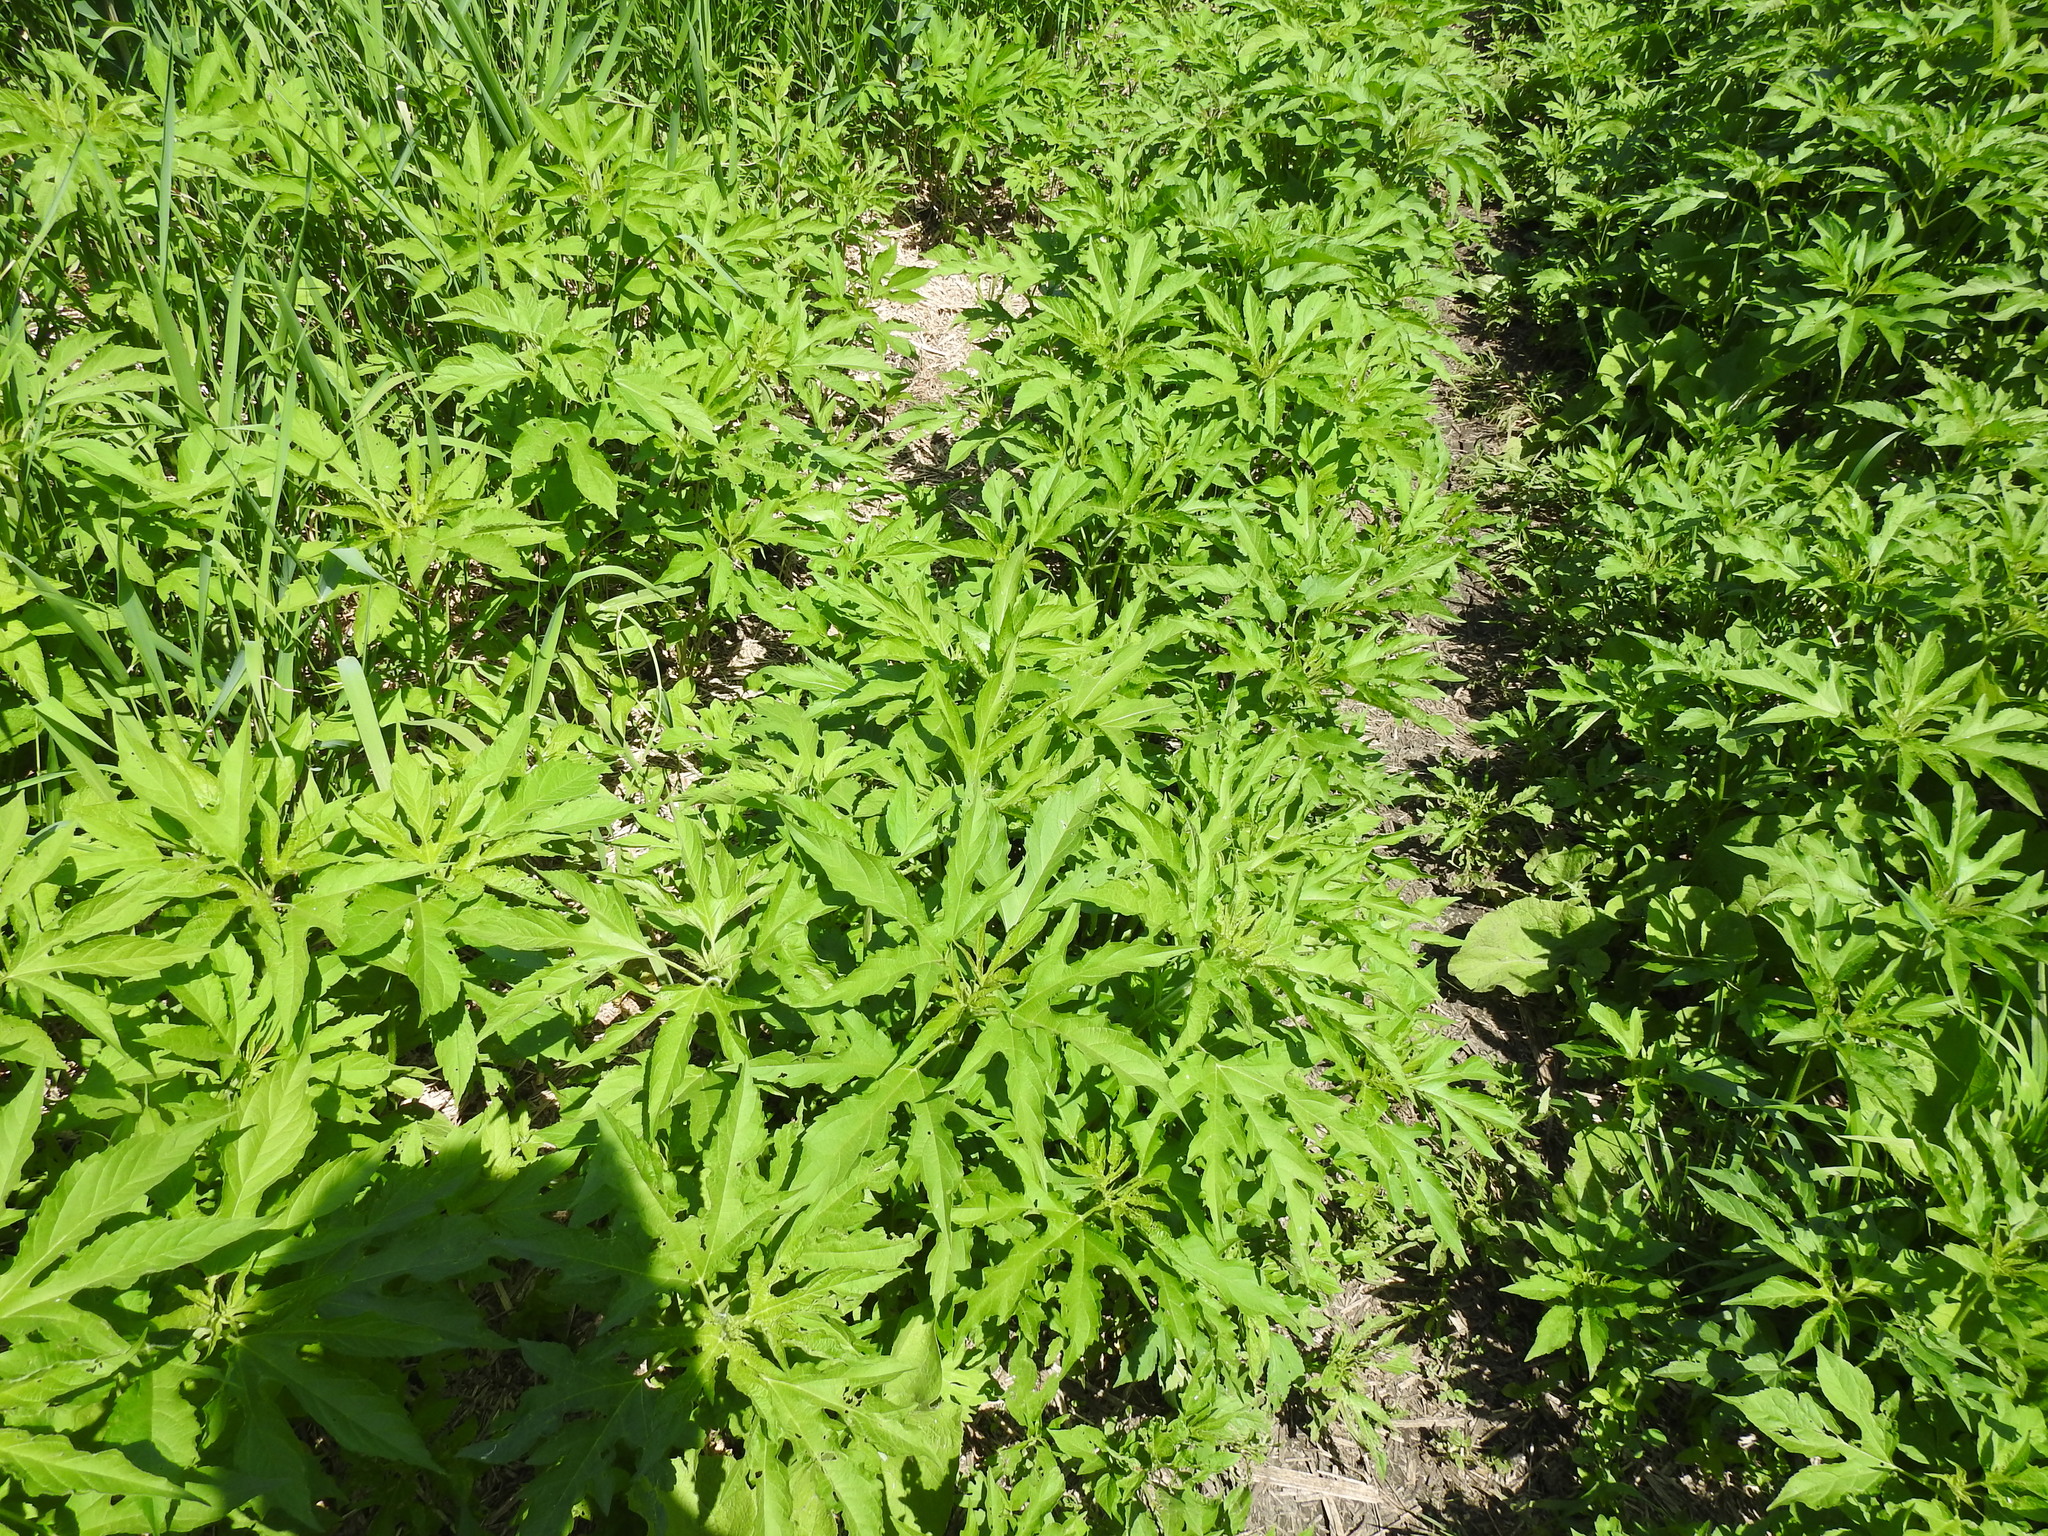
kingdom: Plantae
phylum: Tracheophyta
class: Magnoliopsida
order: Asterales
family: Asteraceae
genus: Ambrosia
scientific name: Ambrosia trifida
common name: Giant ragweed
